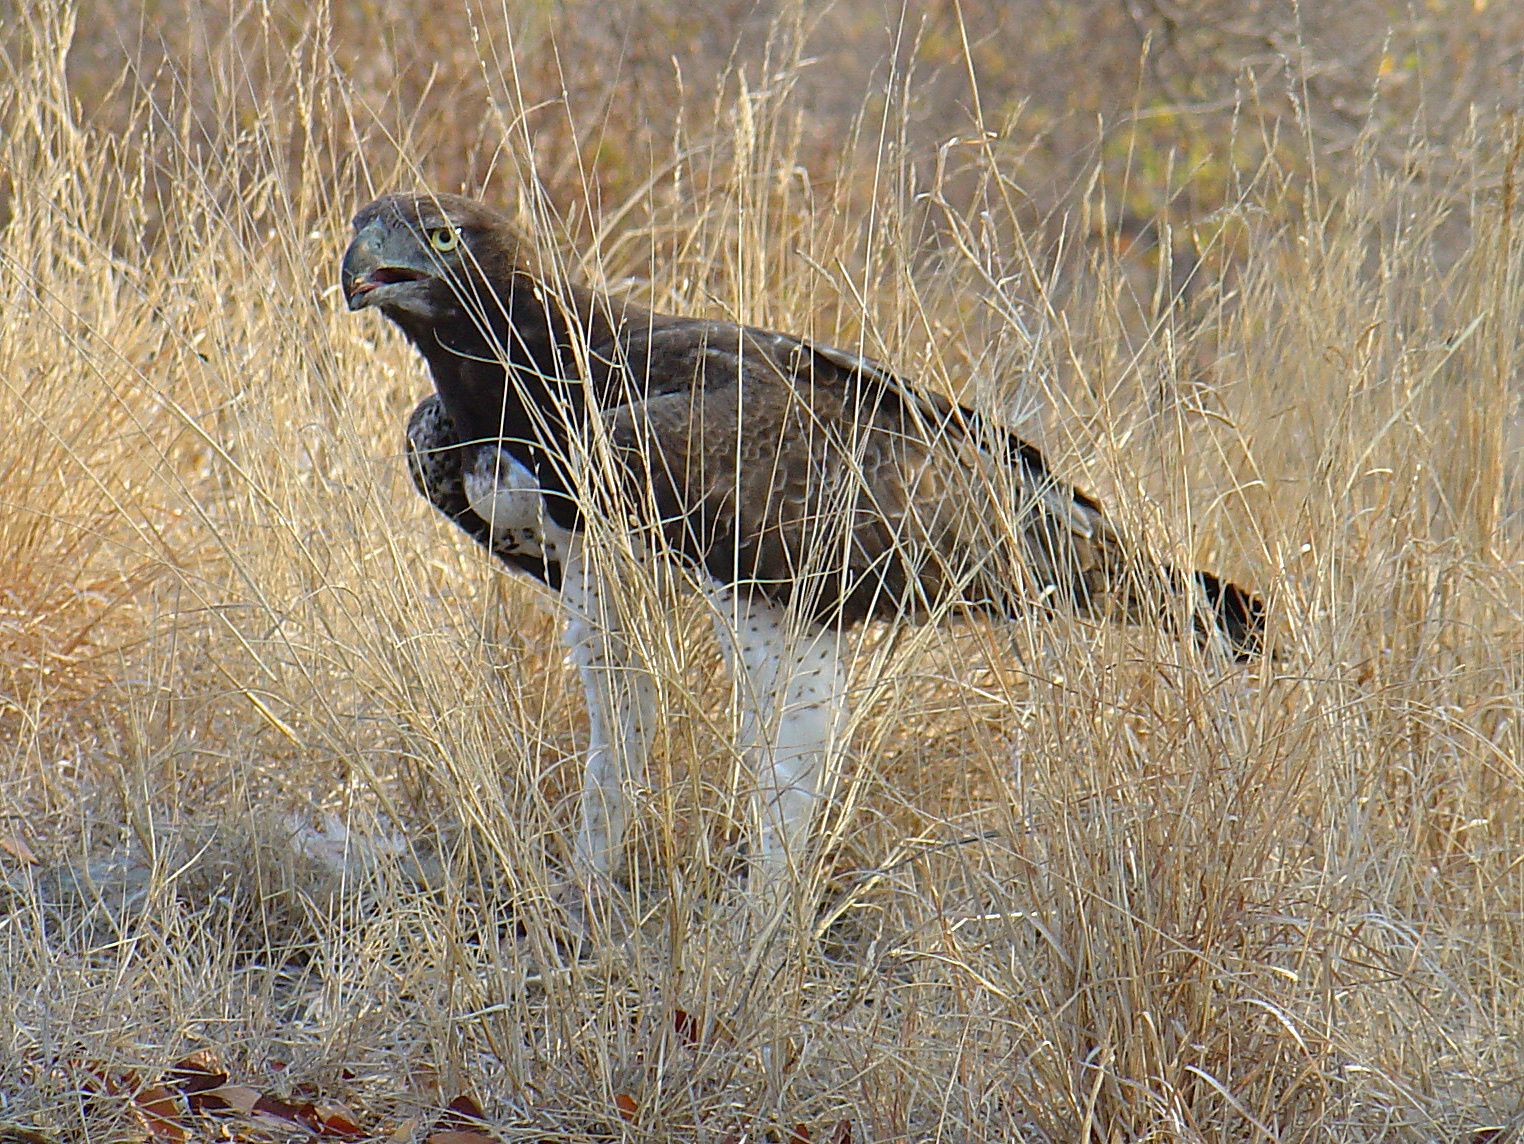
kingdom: Animalia
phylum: Chordata
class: Aves
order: Accipitriformes
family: Accipitridae
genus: Polemaetus
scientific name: Polemaetus bellicosus
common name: Martial eagle
